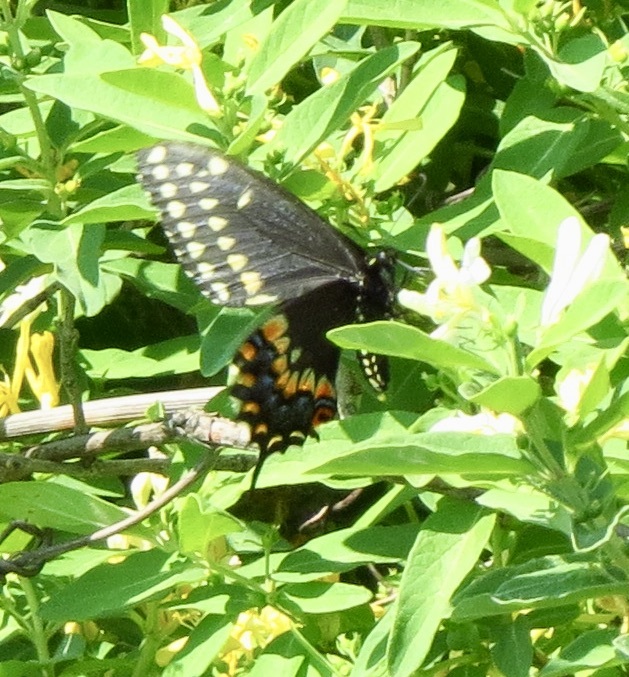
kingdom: Animalia
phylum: Arthropoda
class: Insecta
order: Lepidoptera
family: Papilionidae
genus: Papilio
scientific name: Papilio polyxenes
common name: Black swallowtail
